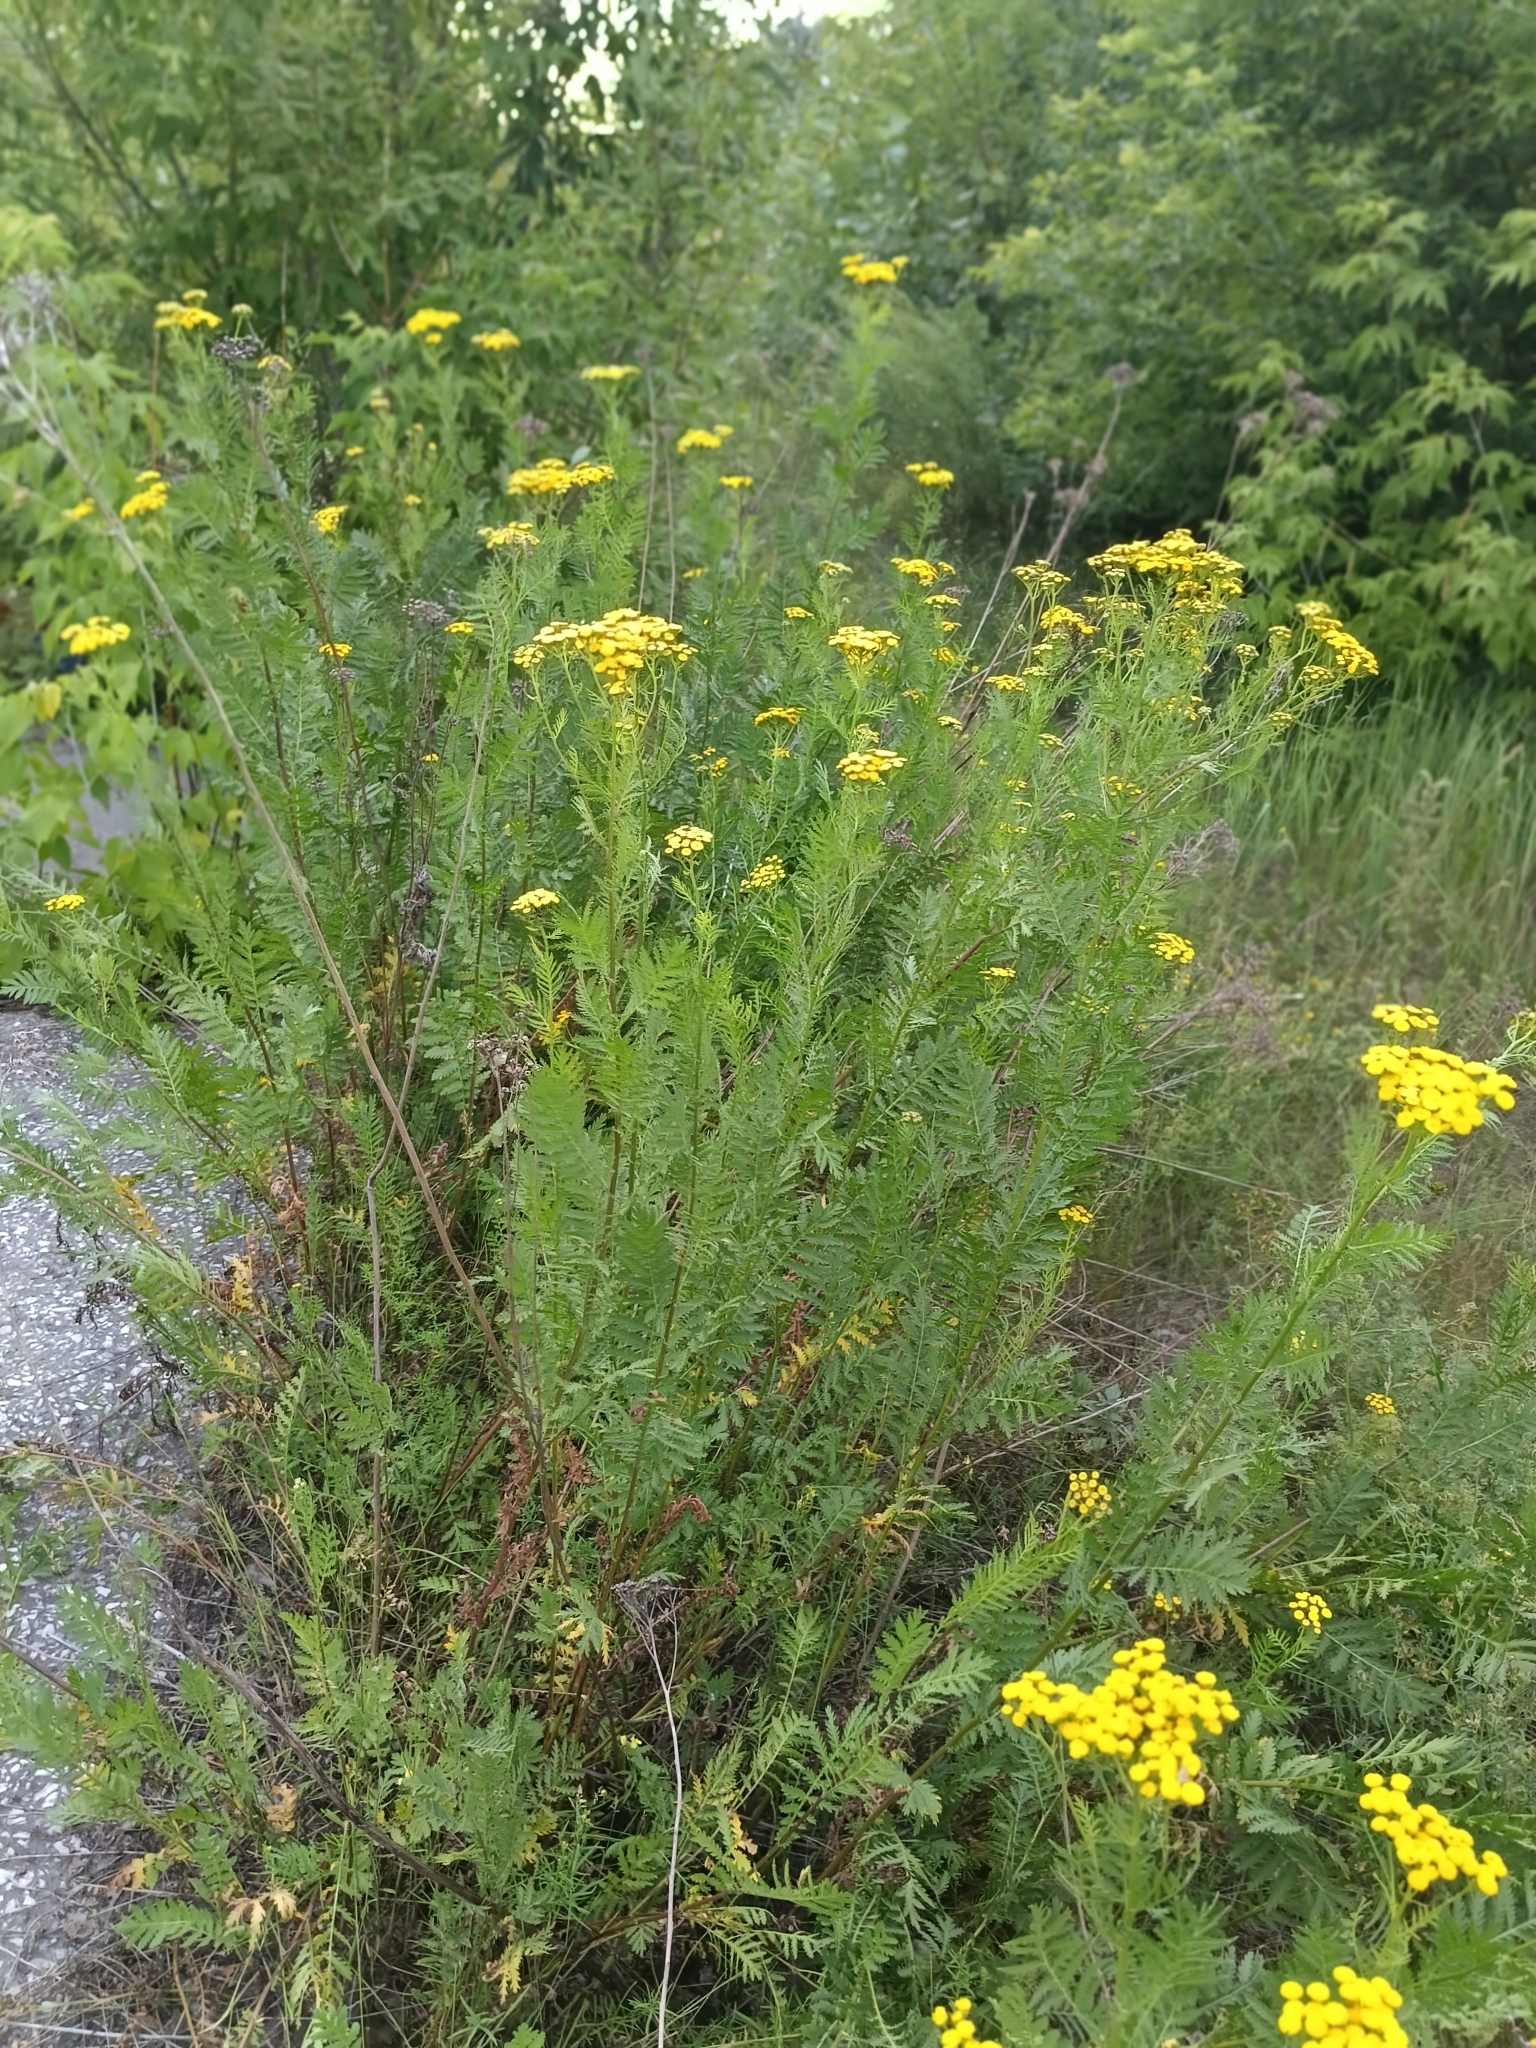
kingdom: Plantae
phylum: Tracheophyta
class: Magnoliopsida
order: Asterales
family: Asteraceae
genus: Tanacetum
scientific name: Tanacetum vulgare
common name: Common tansy
